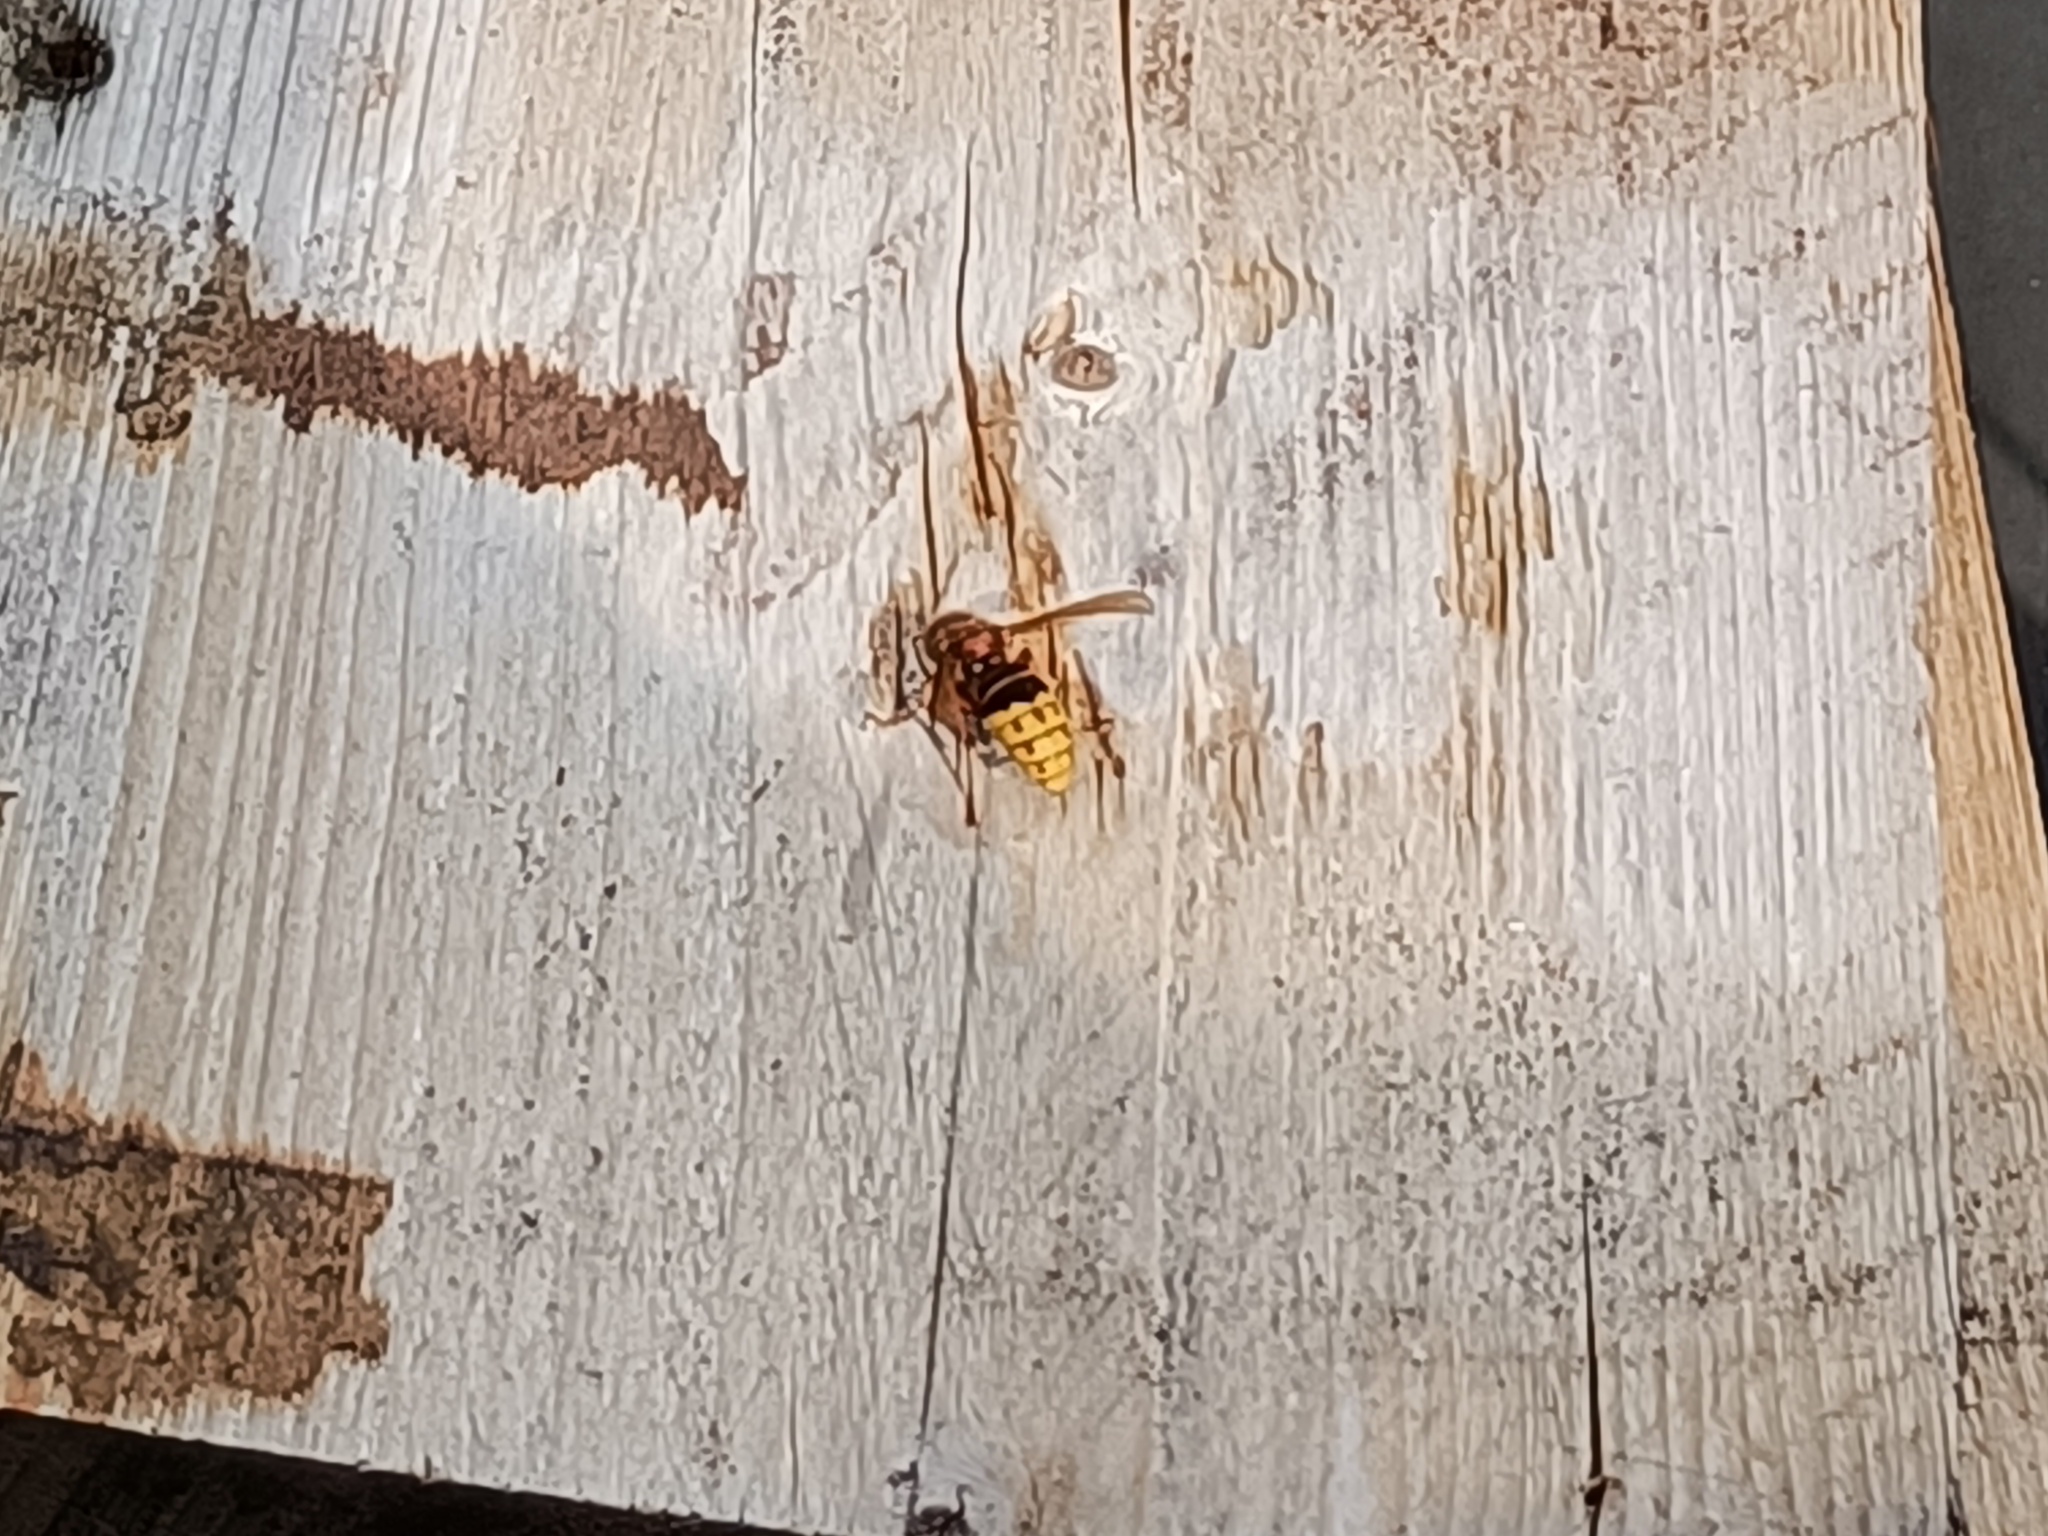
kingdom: Animalia
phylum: Arthropoda
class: Insecta
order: Hymenoptera
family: Vespidae
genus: Vespa
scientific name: Vespa crabro
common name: Hornet
